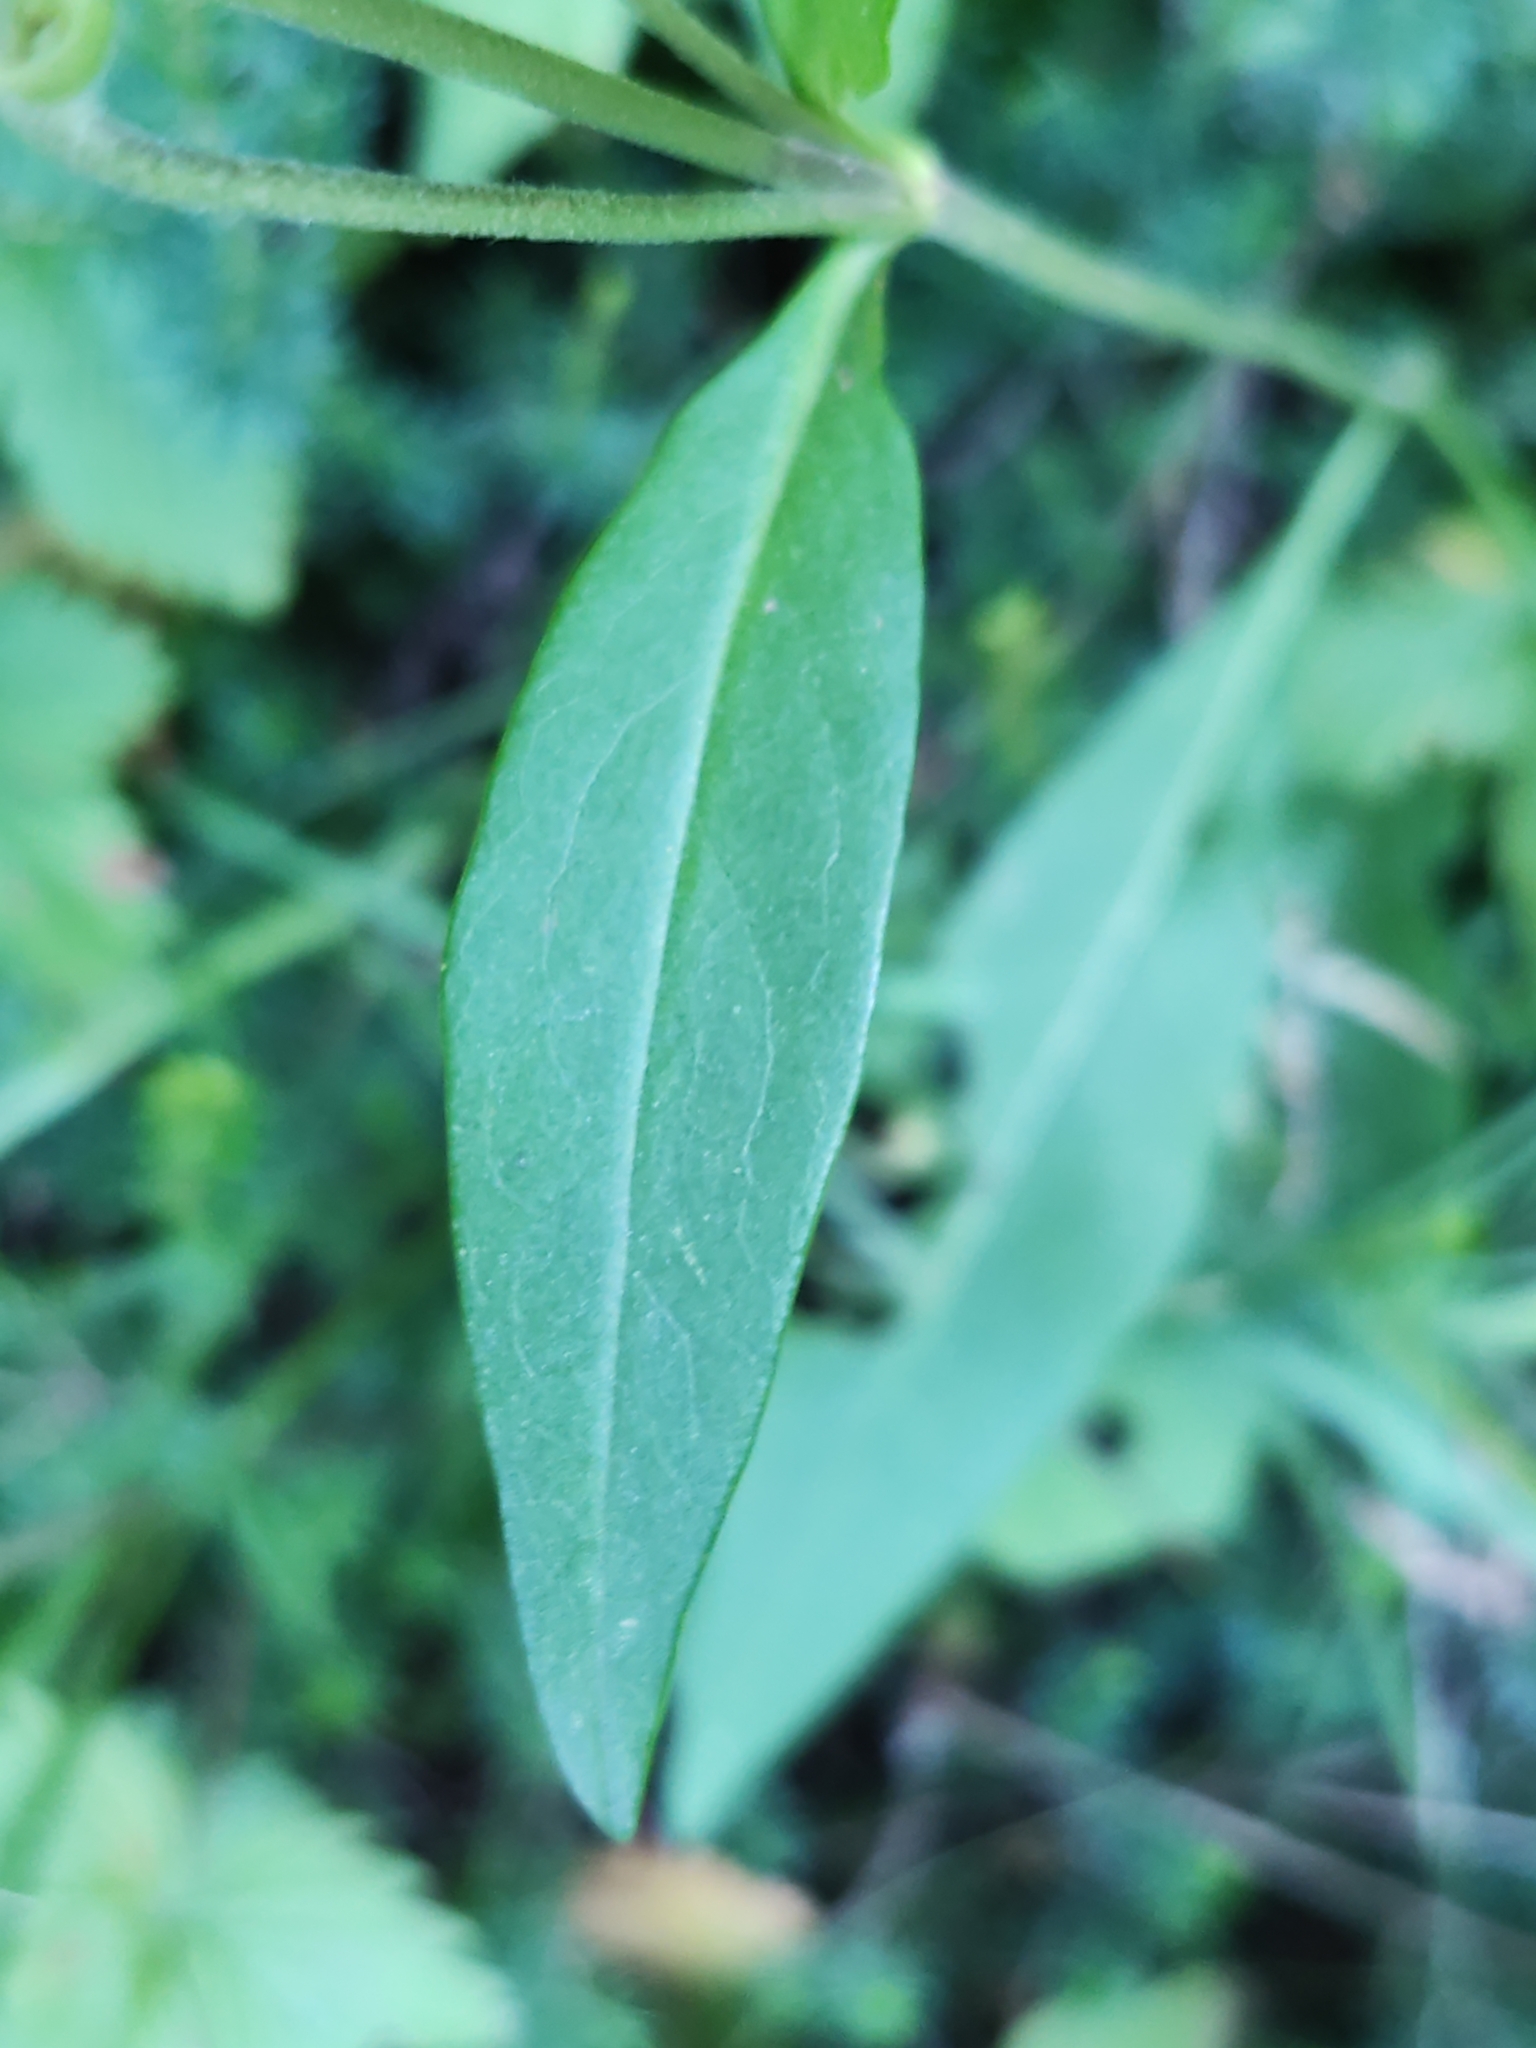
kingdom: Plantae
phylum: Tracheophyta
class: Magnoliopsida
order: Dipsacales
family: Caprifoliaceae
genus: Succisa
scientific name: Succisa pratensis
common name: Devil's-bit
